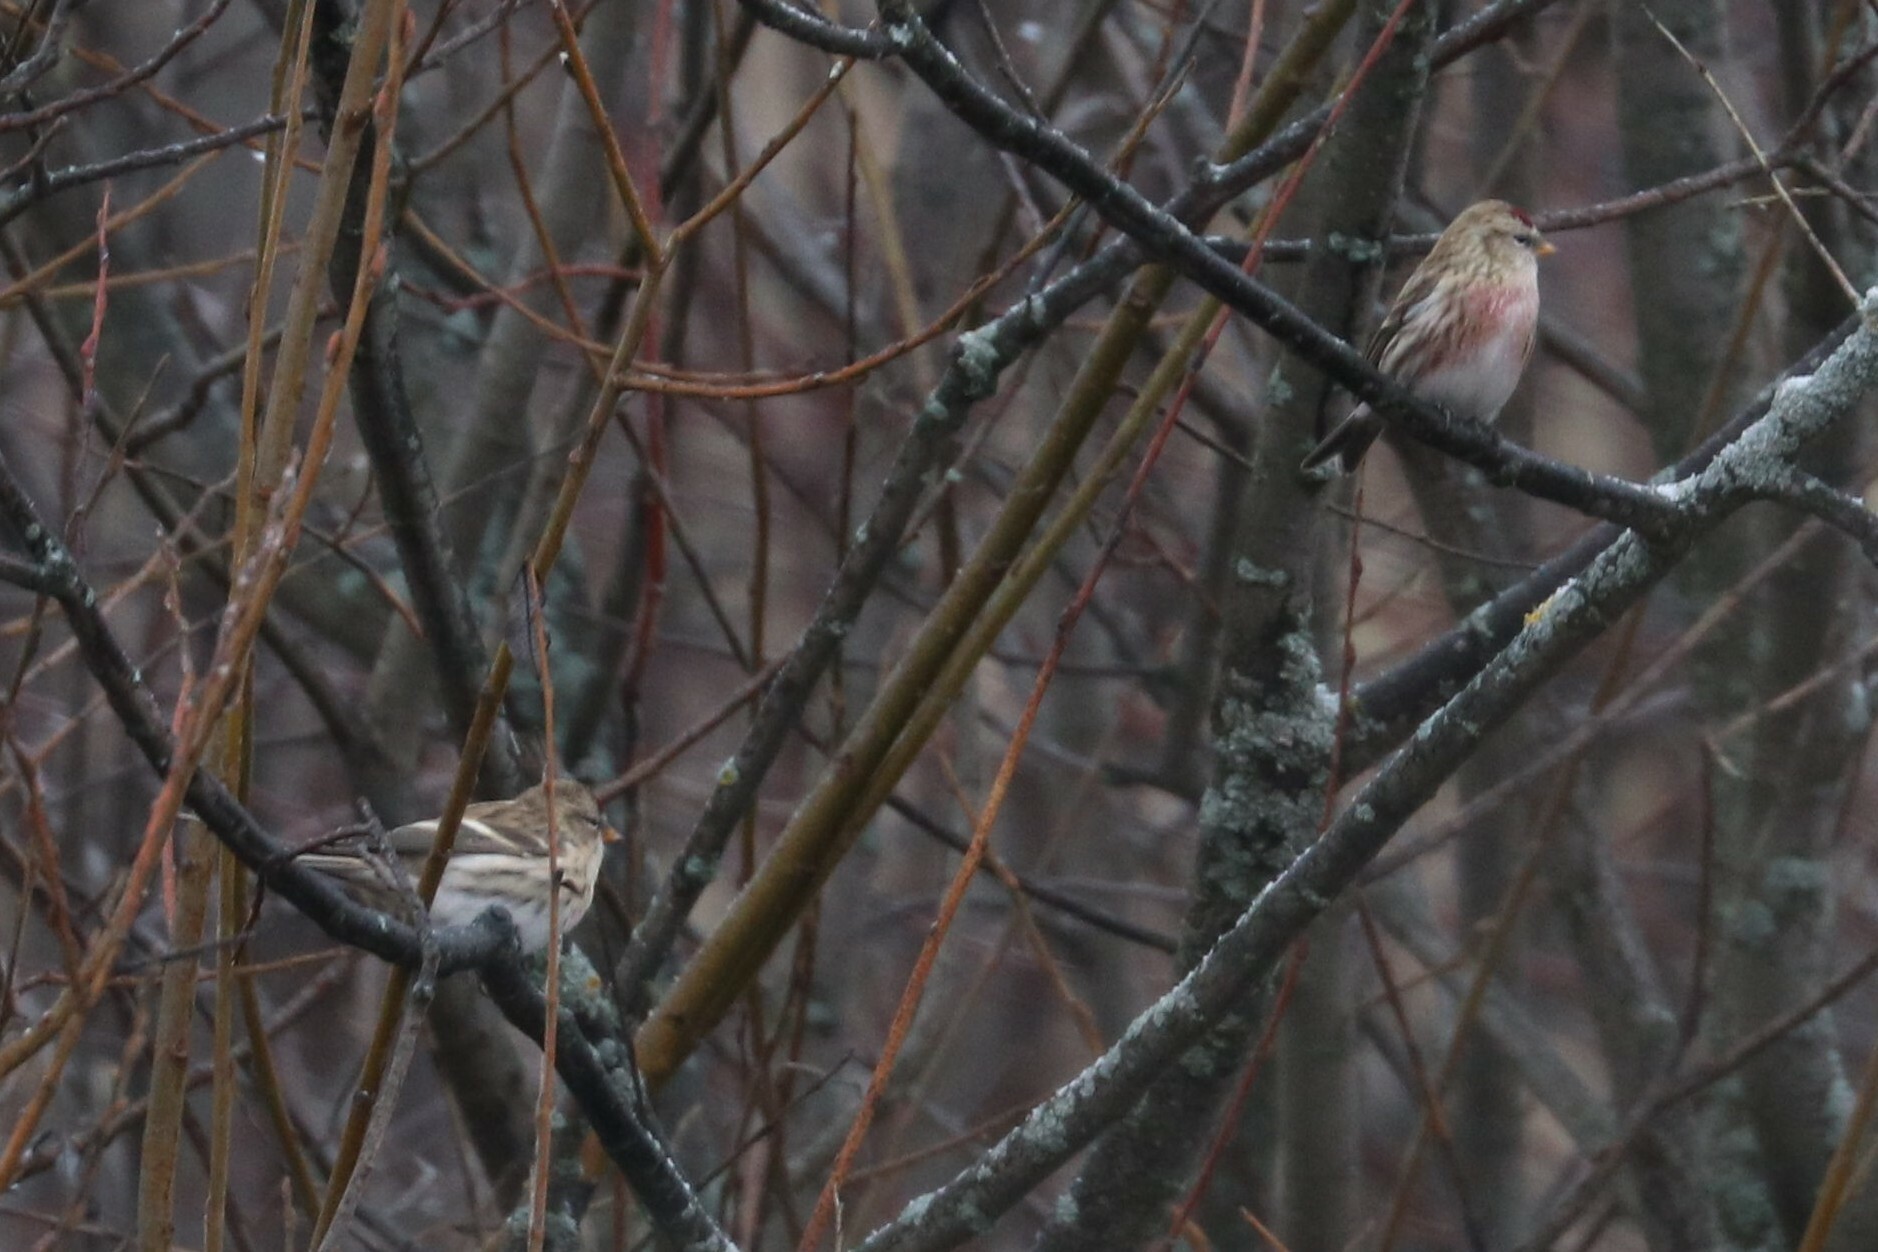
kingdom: Animalia
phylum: Chordata
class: Aves
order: Passeriformes
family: Fringillidae
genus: Acanthis
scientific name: Acanthis flammea
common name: Common redpoll
